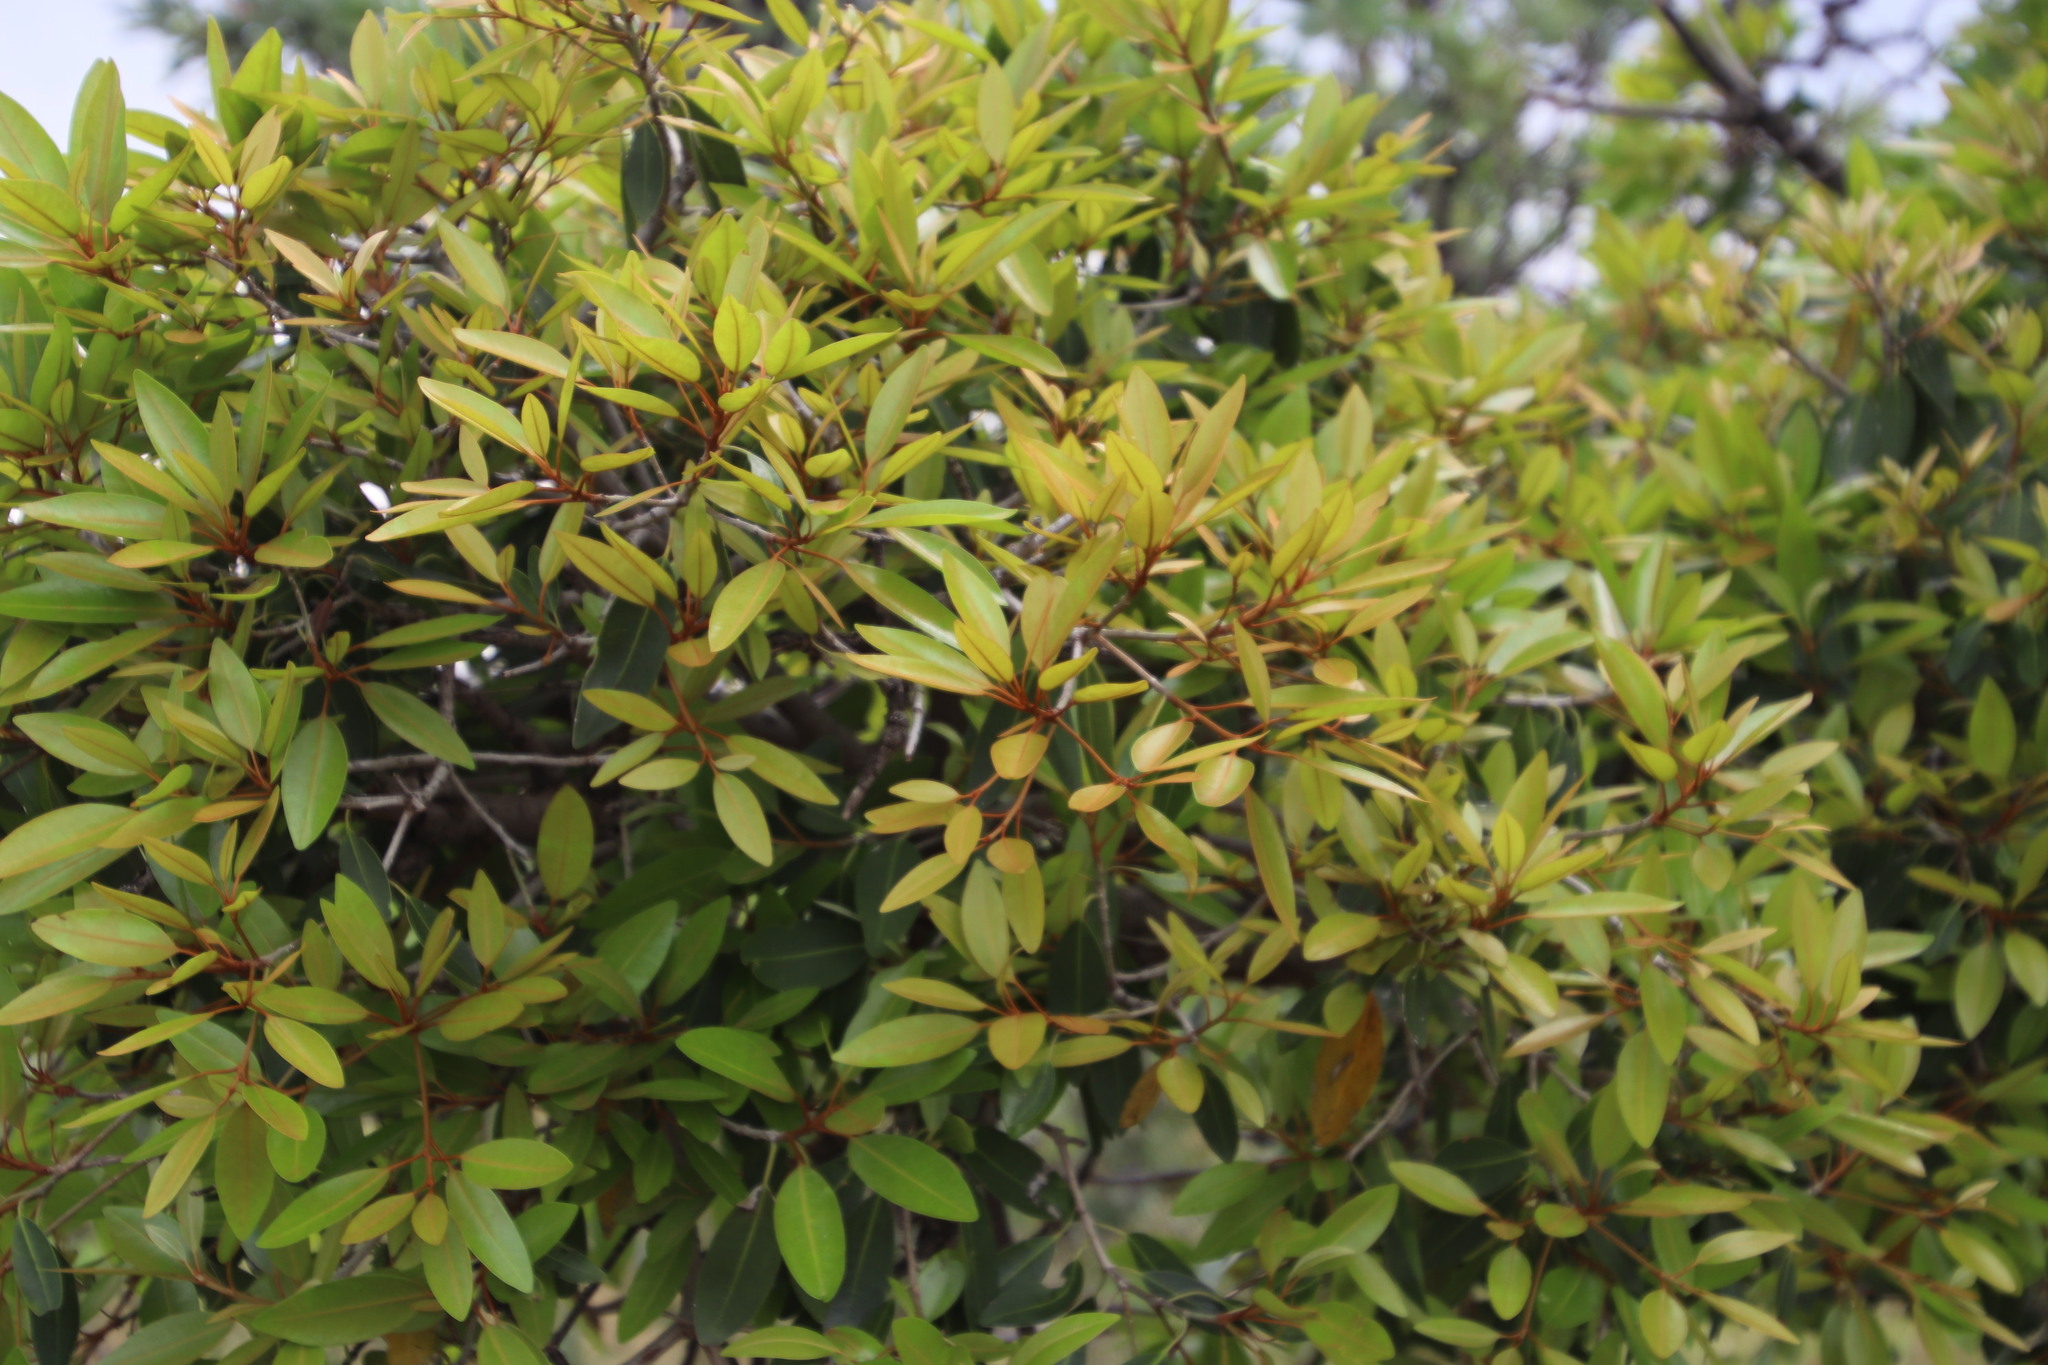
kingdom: Plantae
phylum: Tracheophyta
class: Magnoliopsida
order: Ericales
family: Sapotaceae
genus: Mimusops
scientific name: Mimusops zeyheri
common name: Transvaal red milkwood
